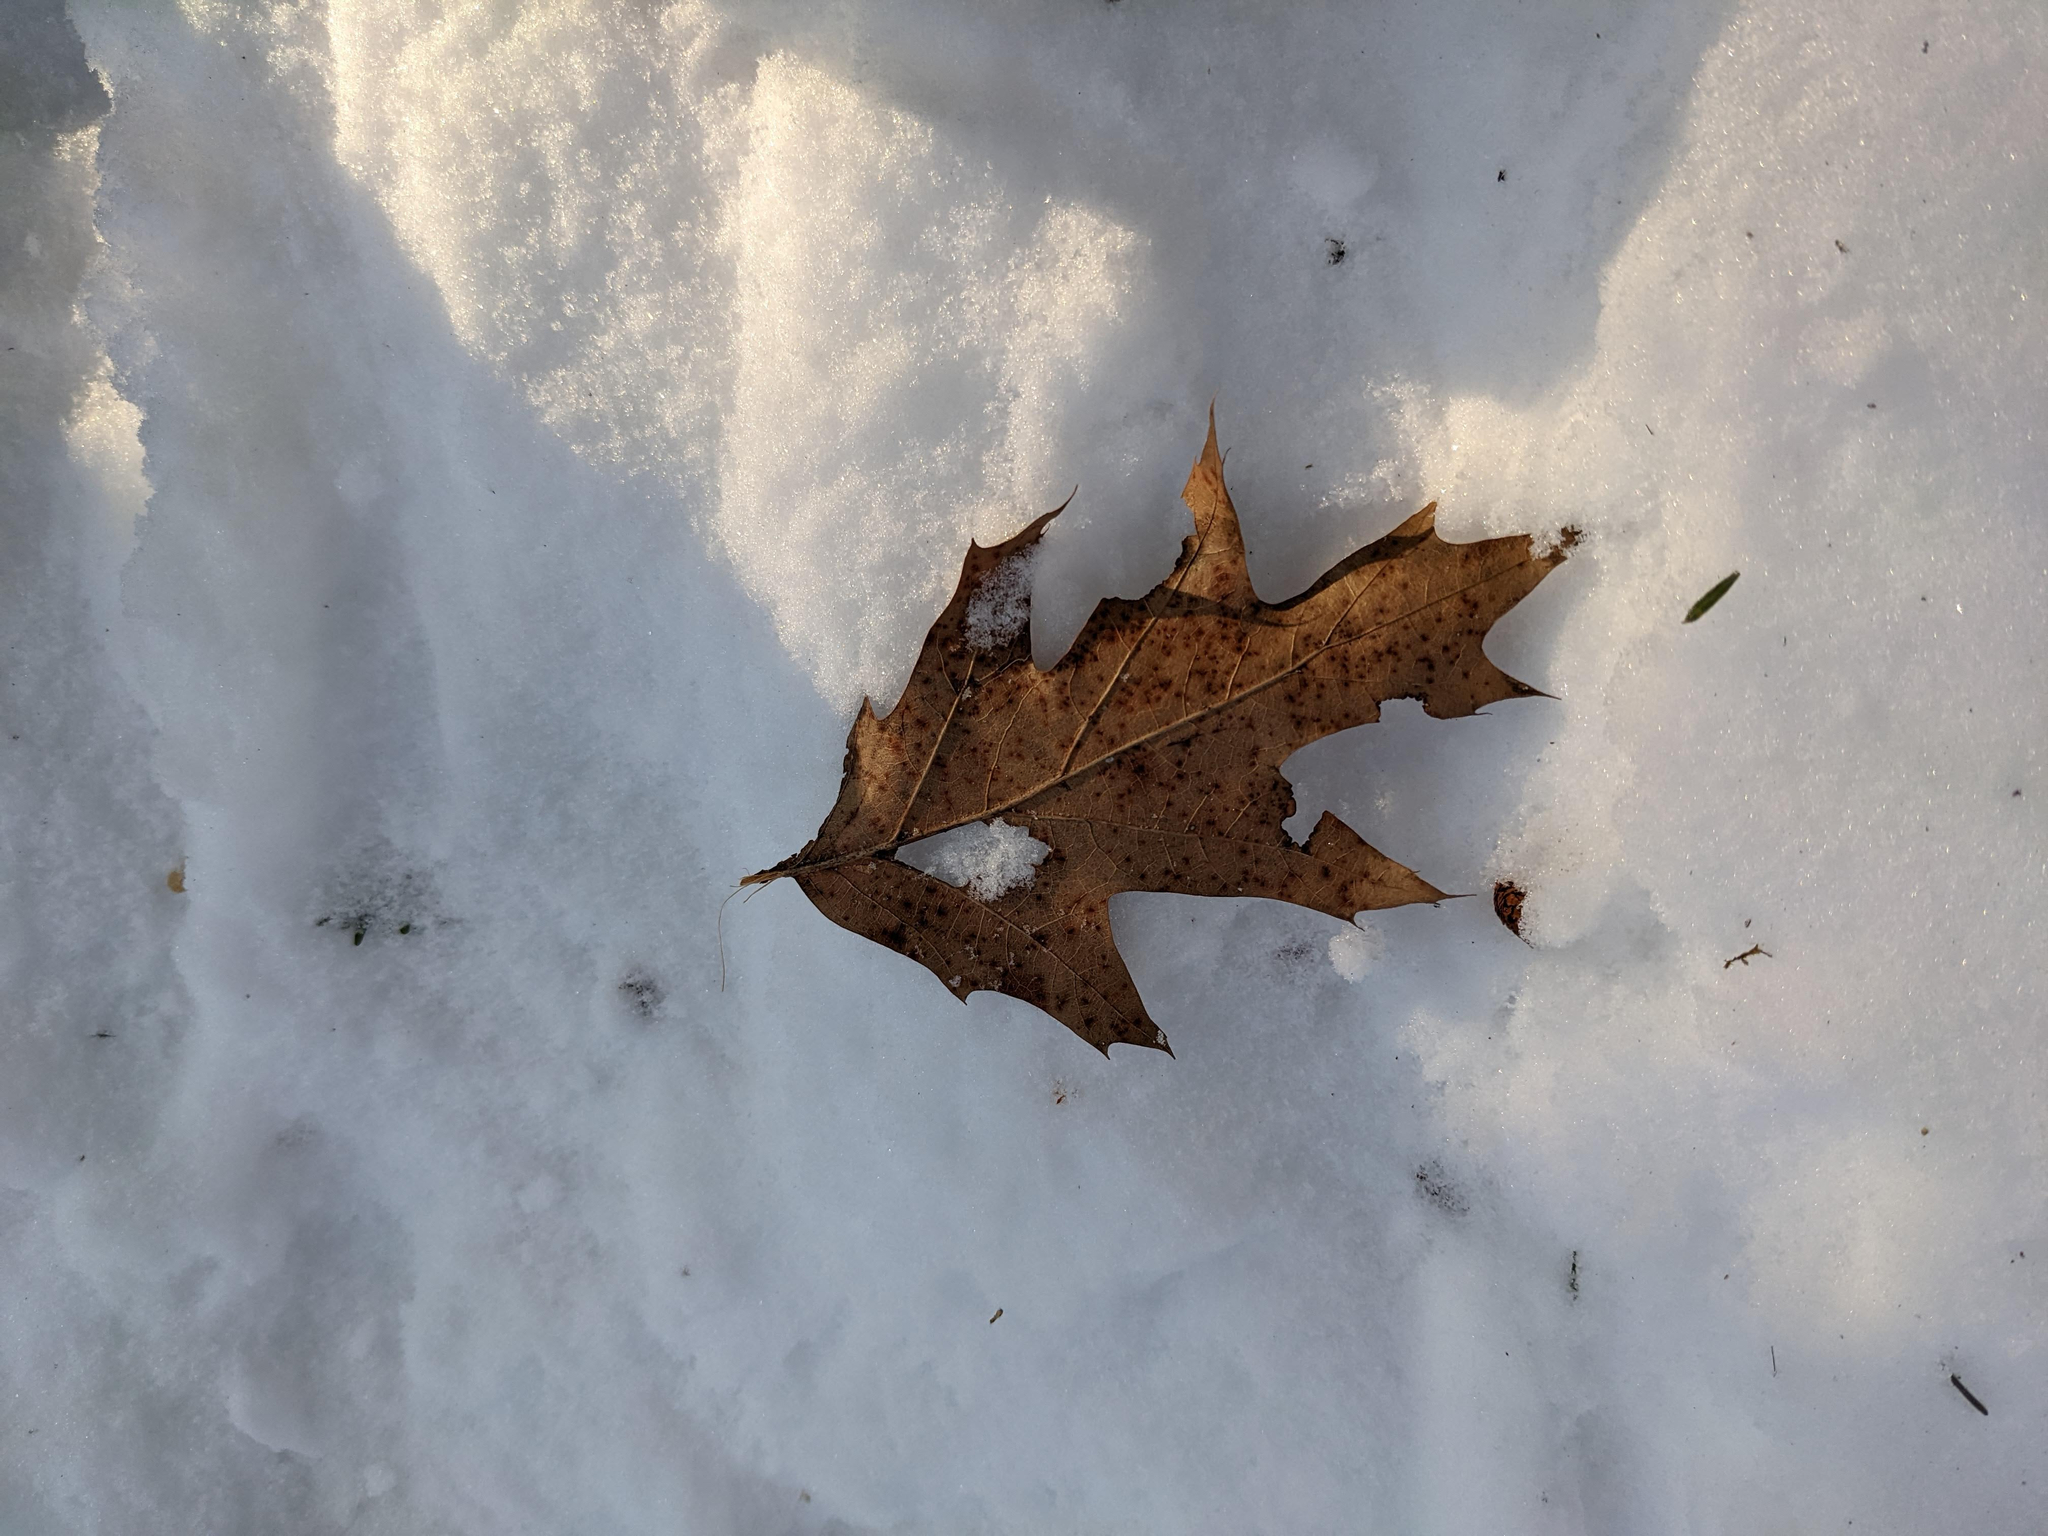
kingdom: Plantae
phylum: Tracheophyta
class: Magnoliopsida
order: Fagales
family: Fagaceae
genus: Quercus
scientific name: Quercus rubra
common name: Red oak
